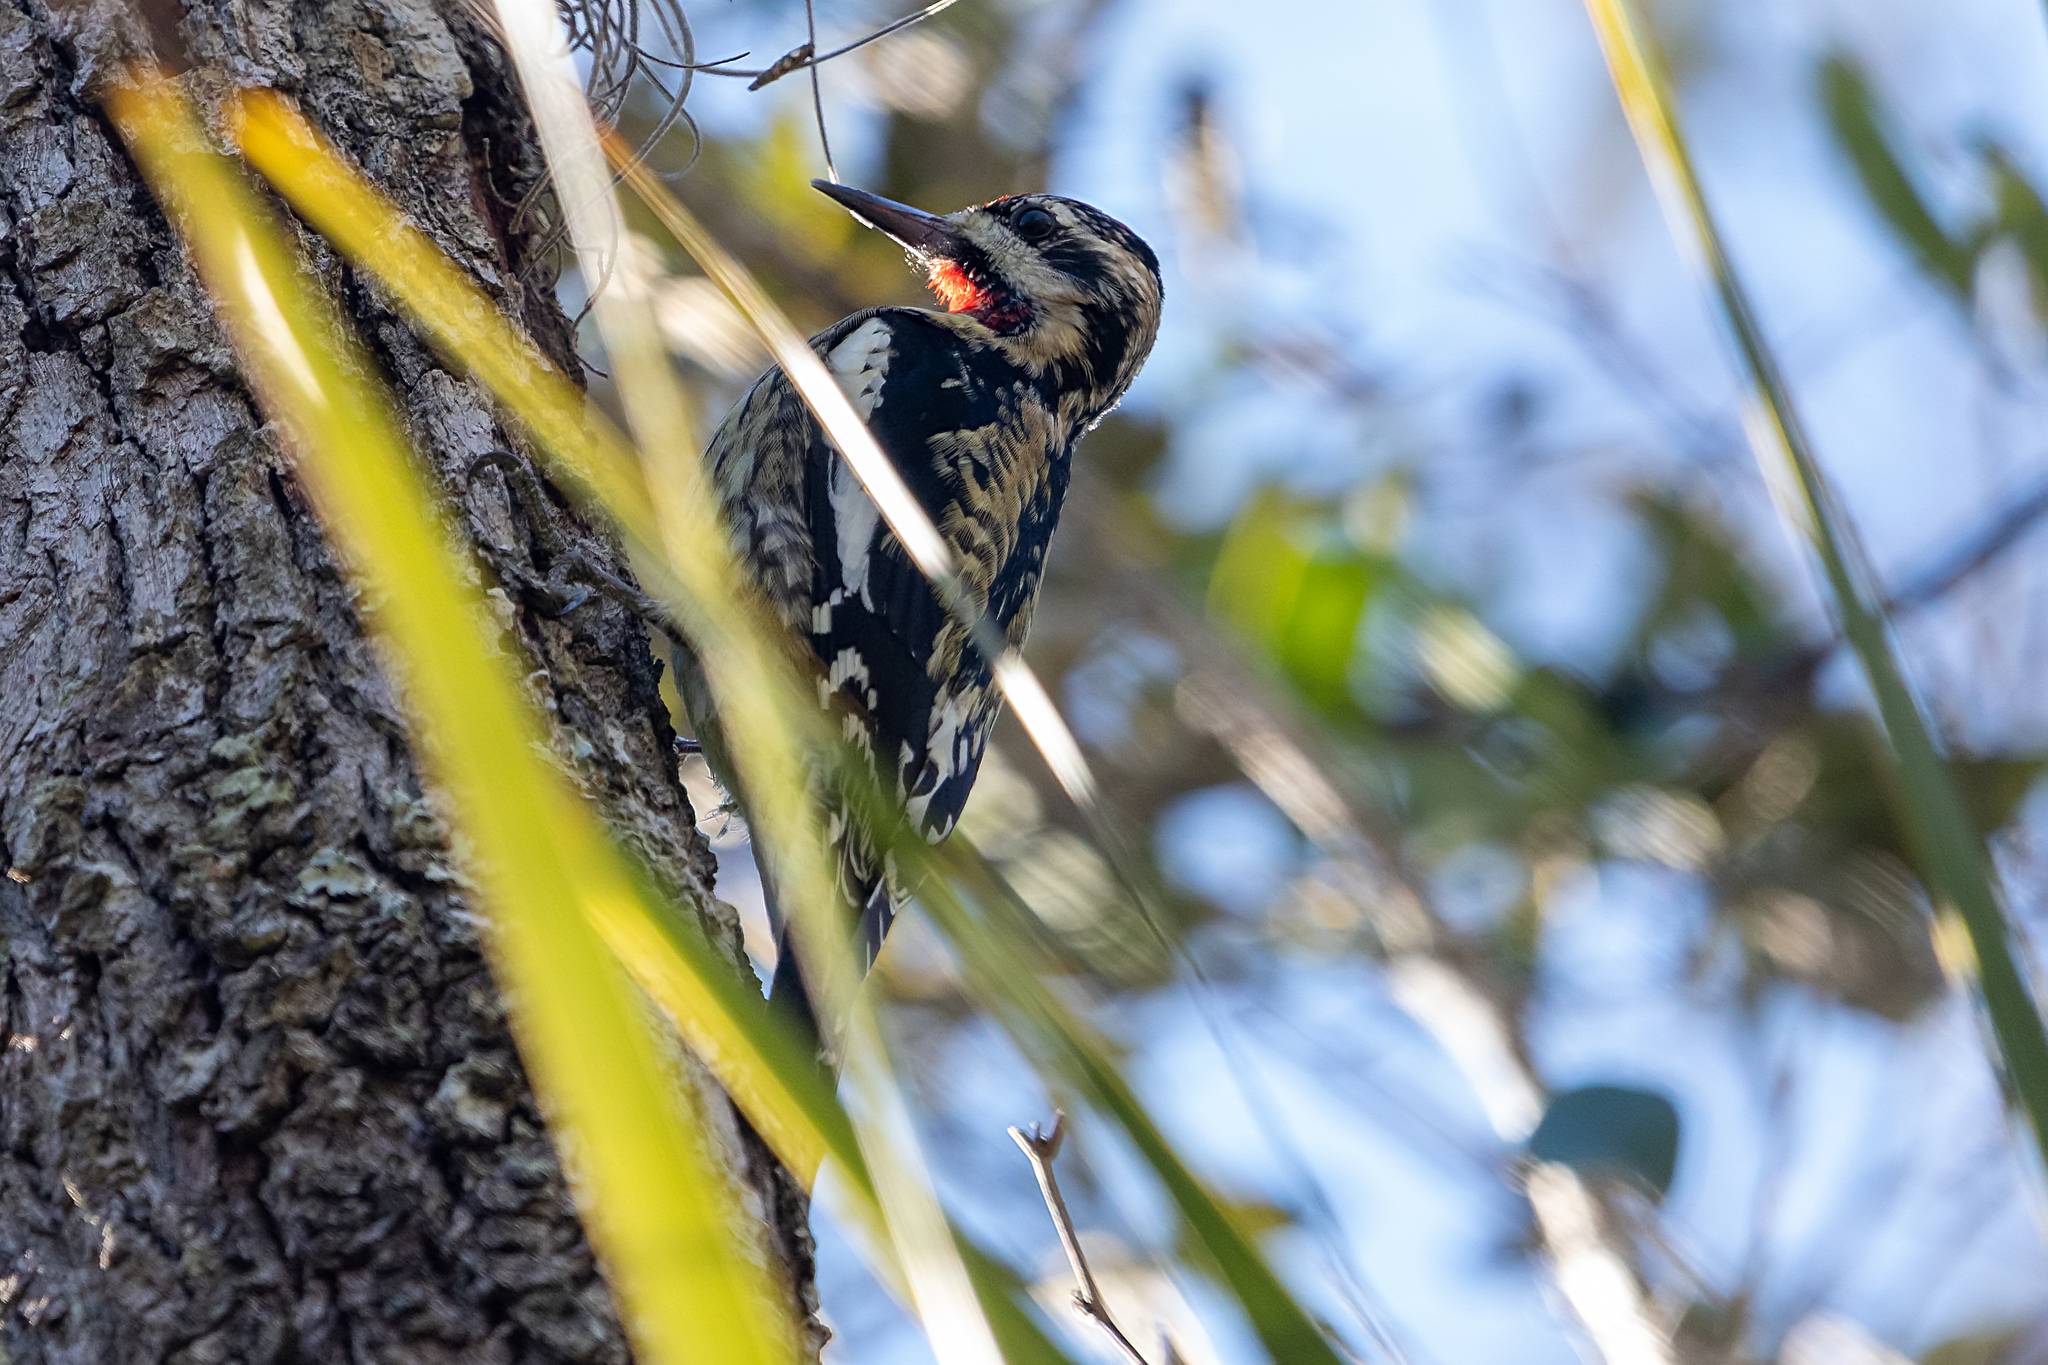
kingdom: Animalia
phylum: Chordata
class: Aves
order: Piciformes
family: Picidae
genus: Sphyrapicus
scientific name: Sphyrapicus varius
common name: Yellow-bellied sapsucker
